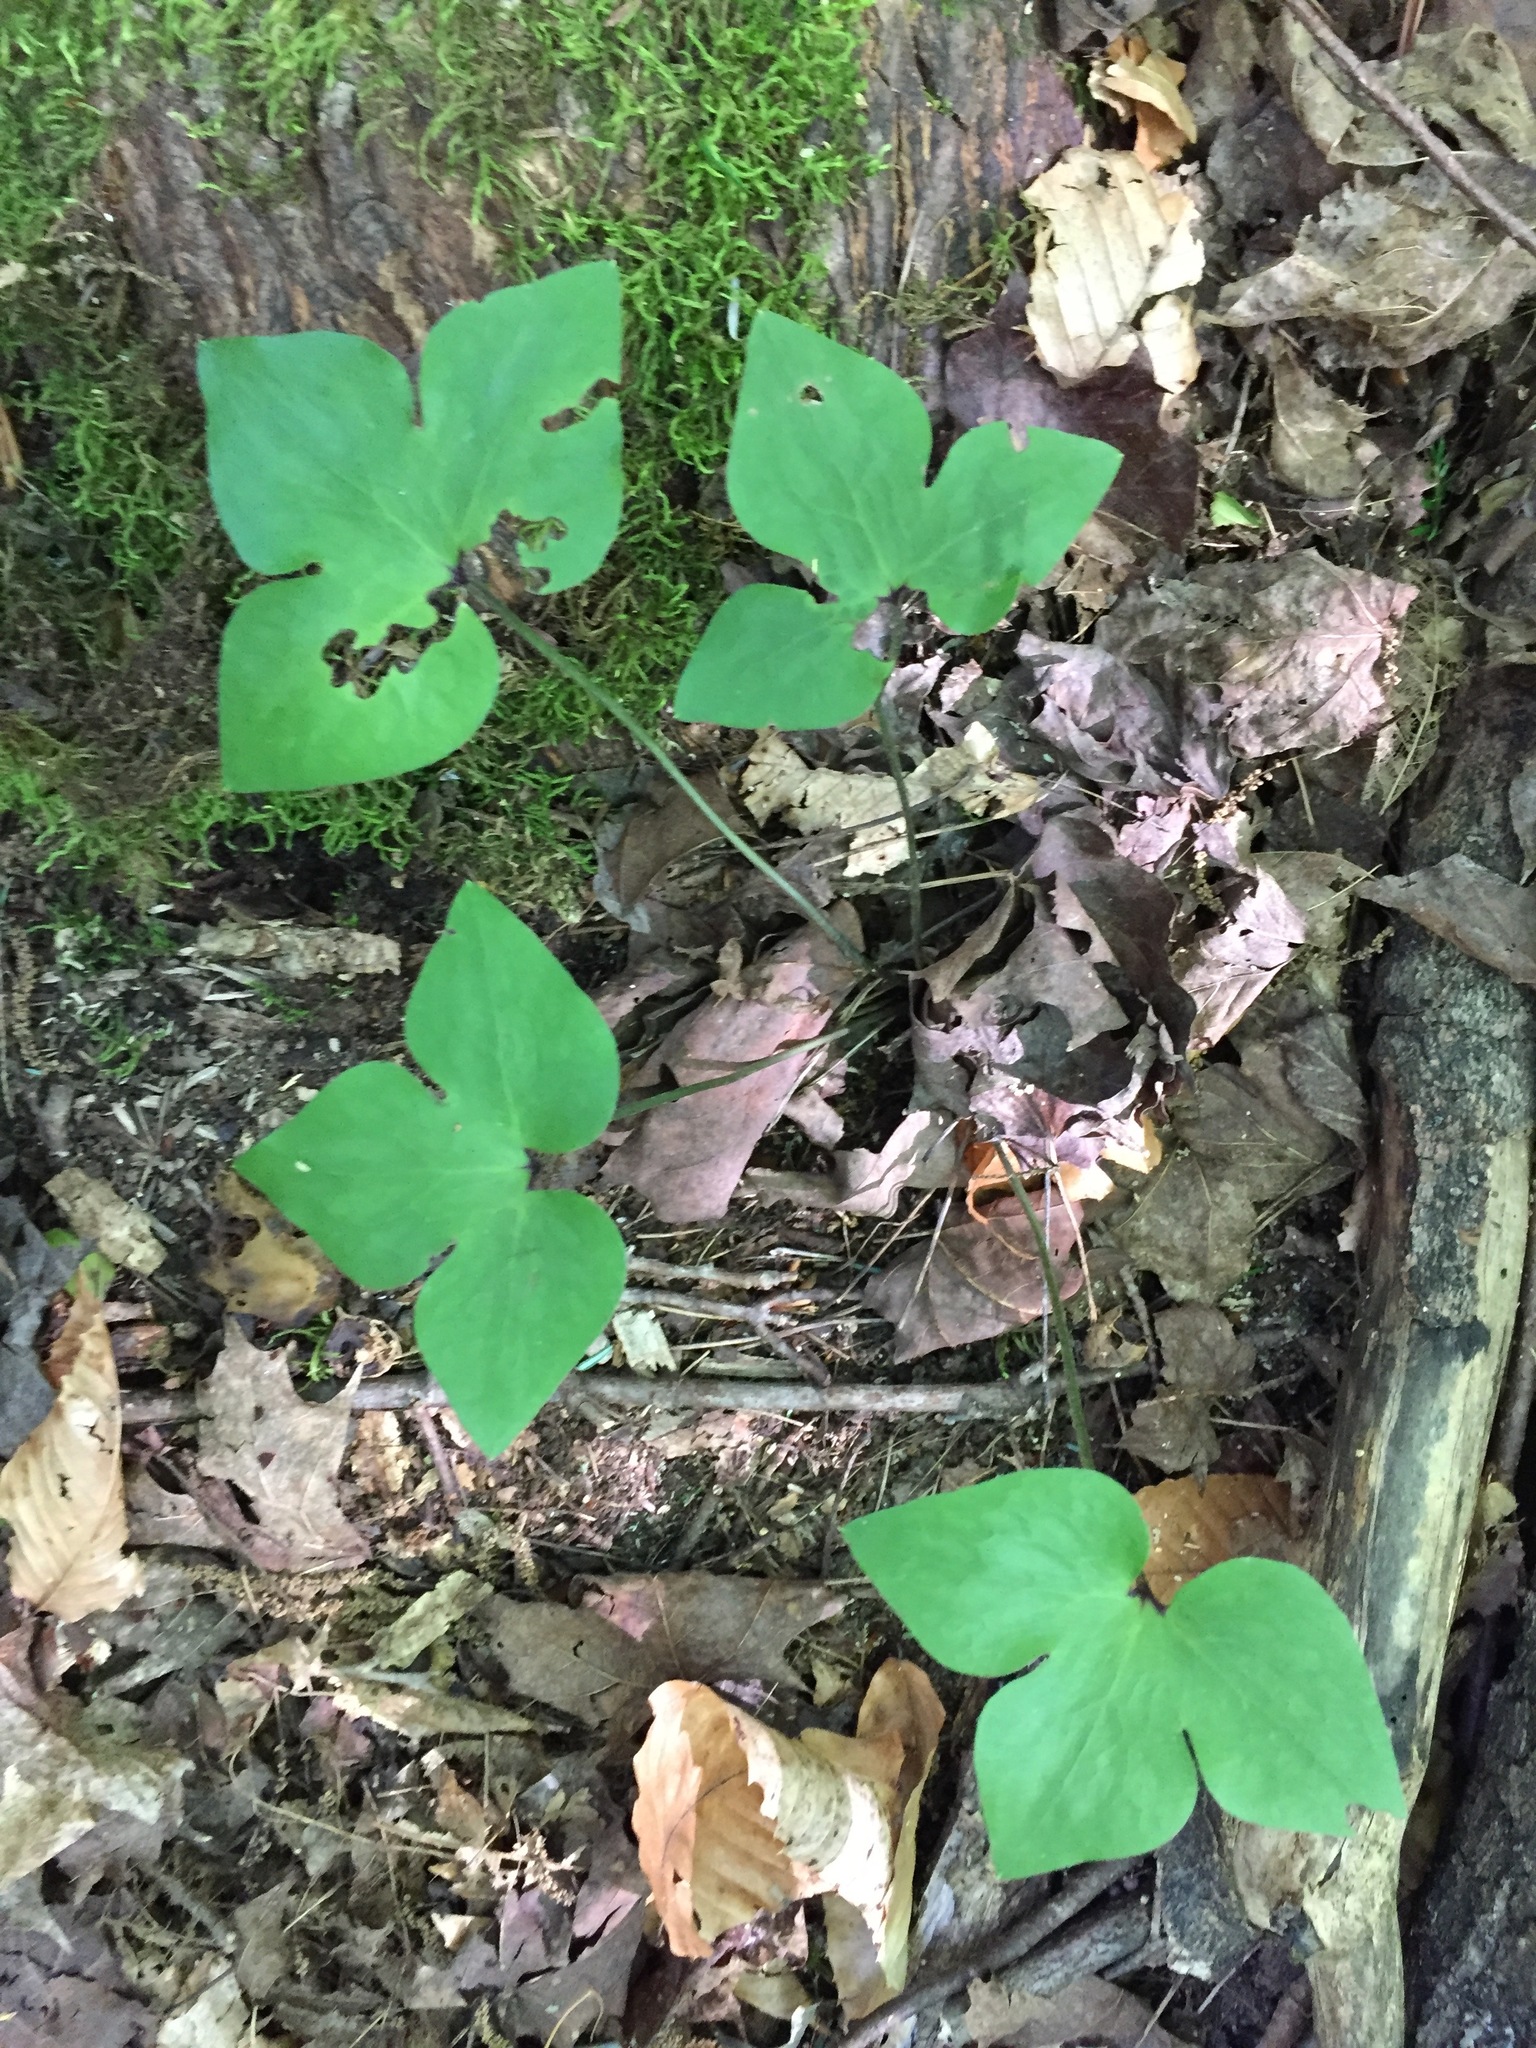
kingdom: Plantae
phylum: Tracheophyta
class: Magnoliopsida
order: Ranunculales
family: Ranunculaceae
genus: Hepatica
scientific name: Hepatica acutiloba
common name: Sharp-lobed hepatica
